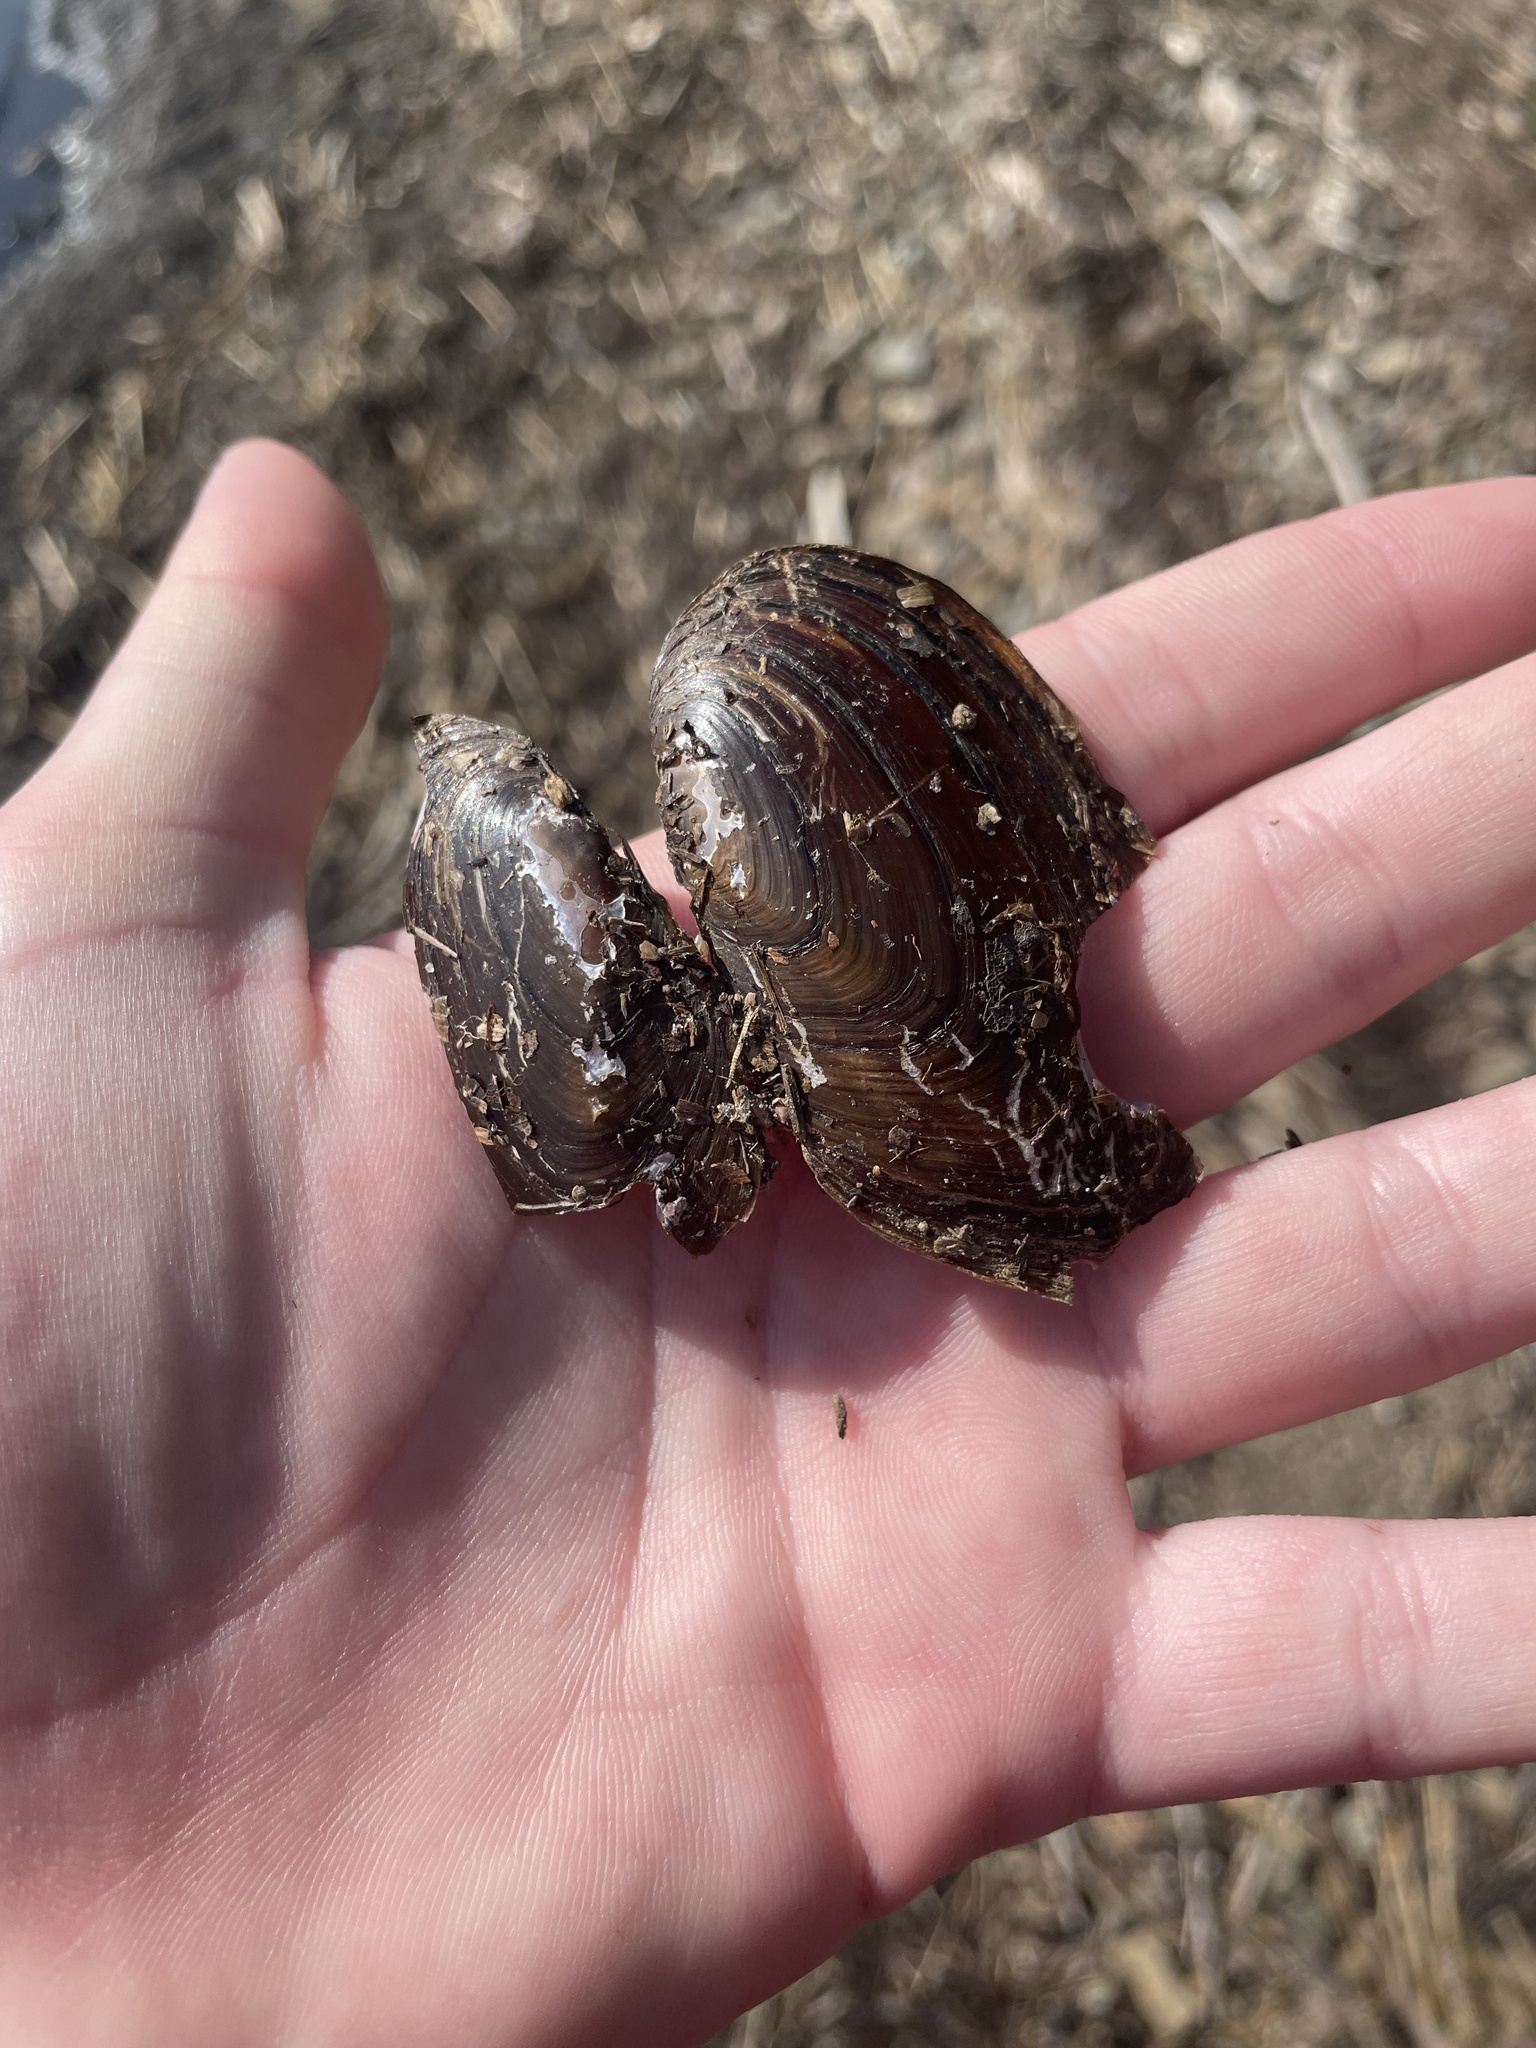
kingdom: Animalia
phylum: Mollusca
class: Bivalvia
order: Unionida
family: Unionidae
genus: Elliptio
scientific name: Elliptio complanata
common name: Eastern elliptio
